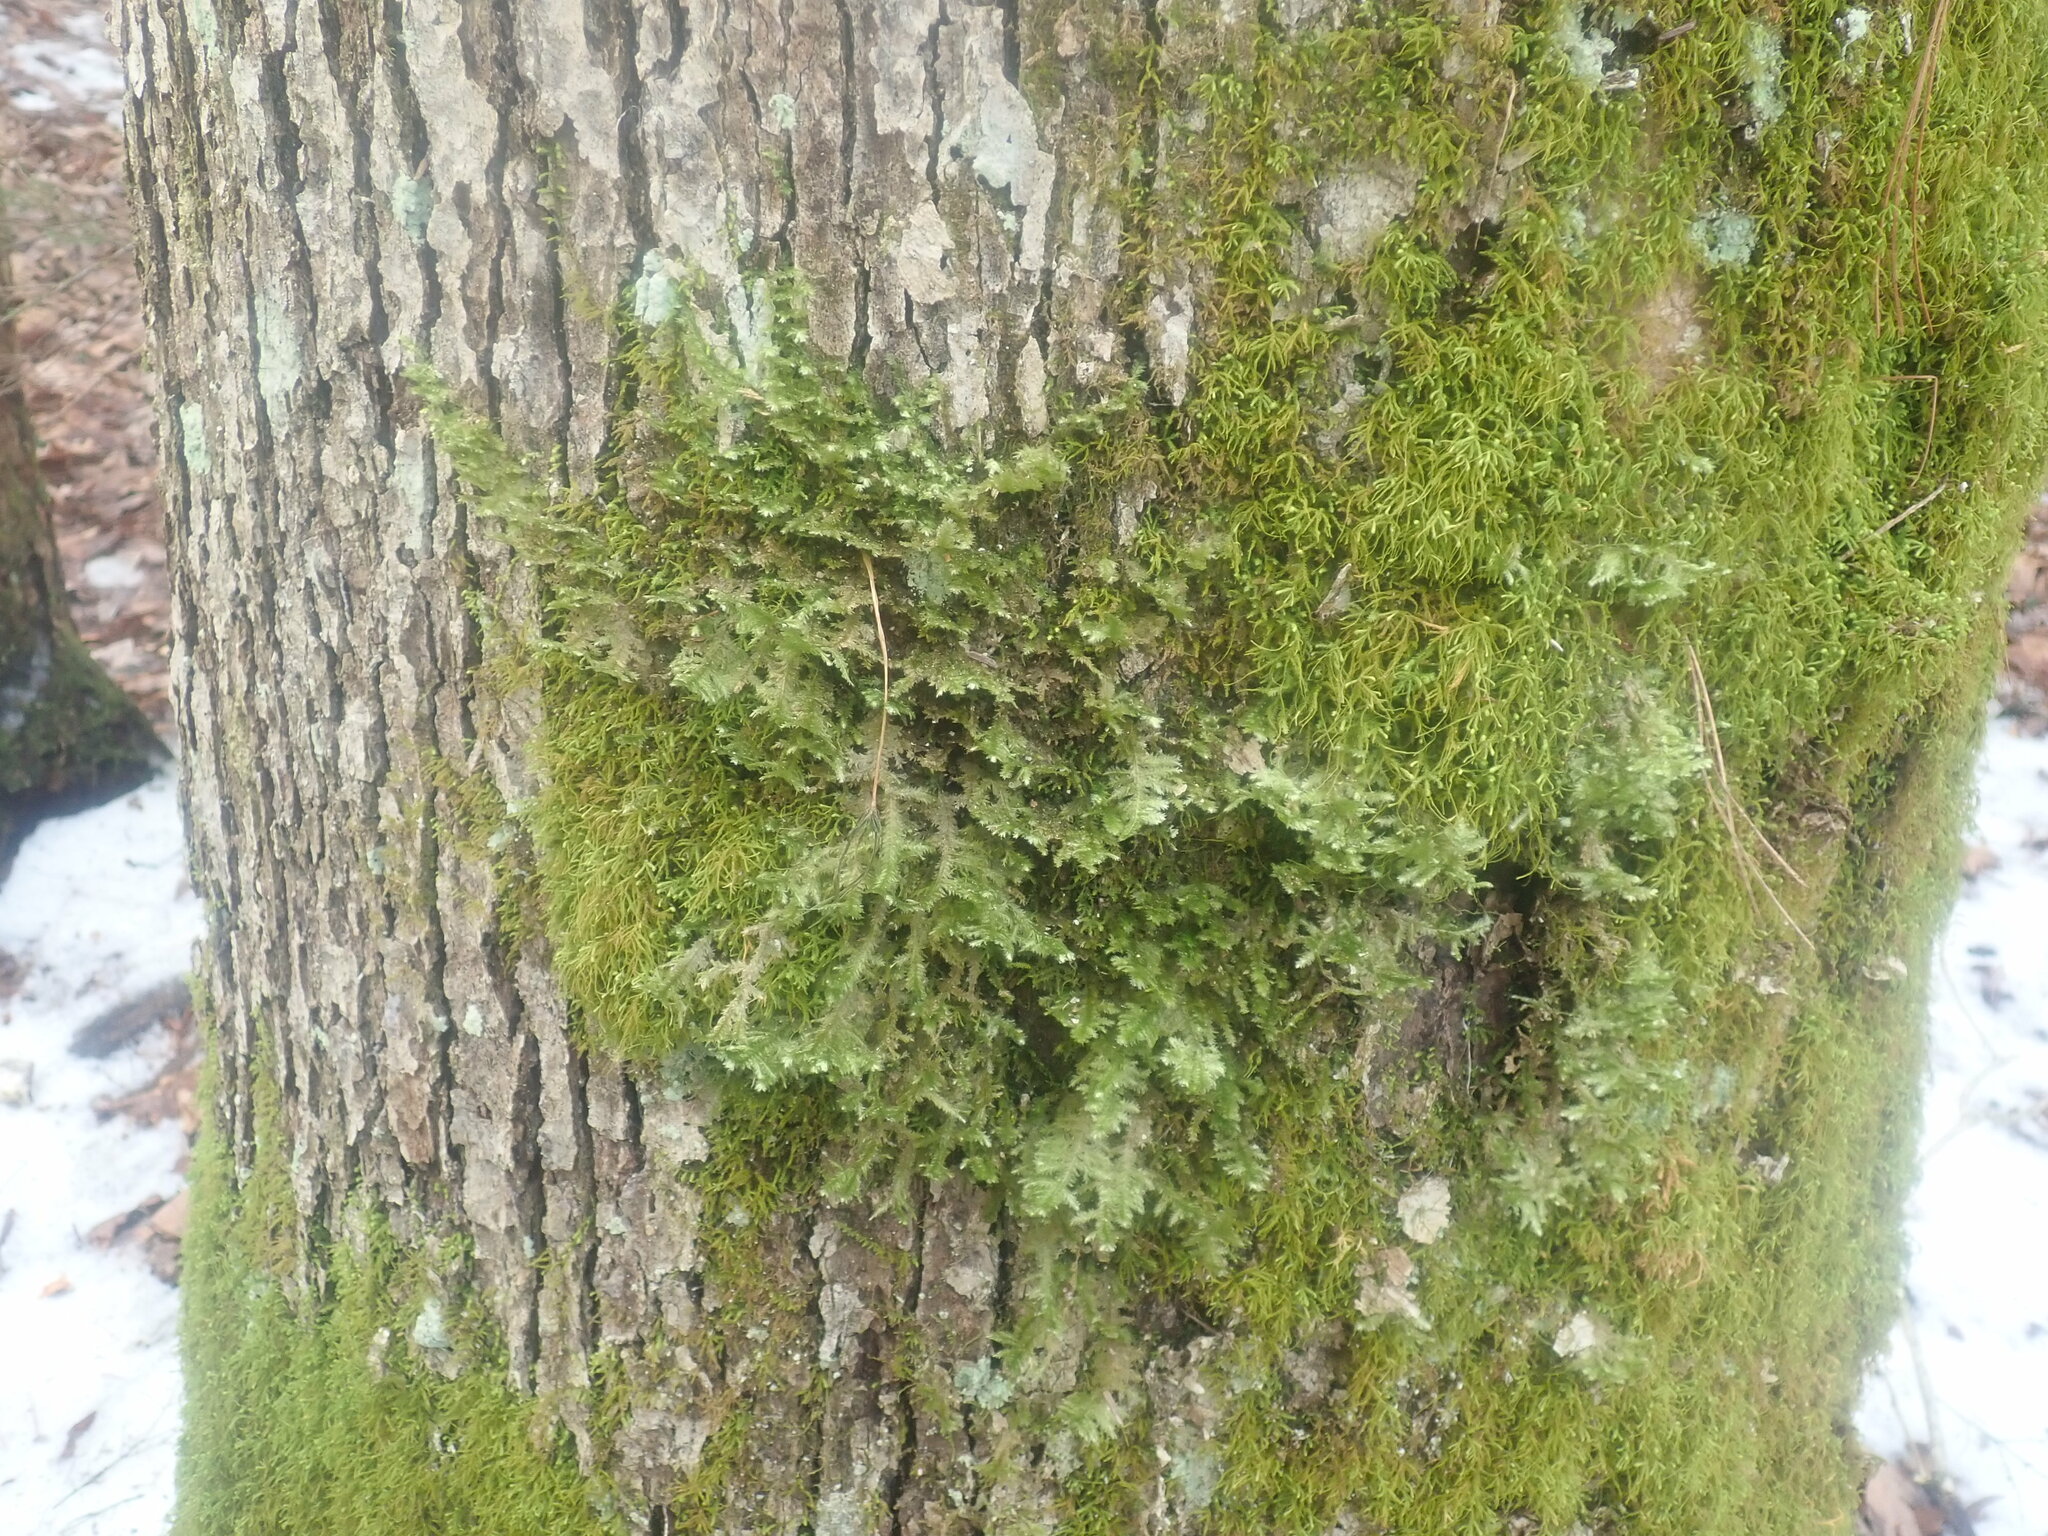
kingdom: Plantae
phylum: Bryophyta
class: Bryopsida
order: Hypnales
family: Neckeraceae
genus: Neckera
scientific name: Neckera pennata
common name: Feathery neckera
